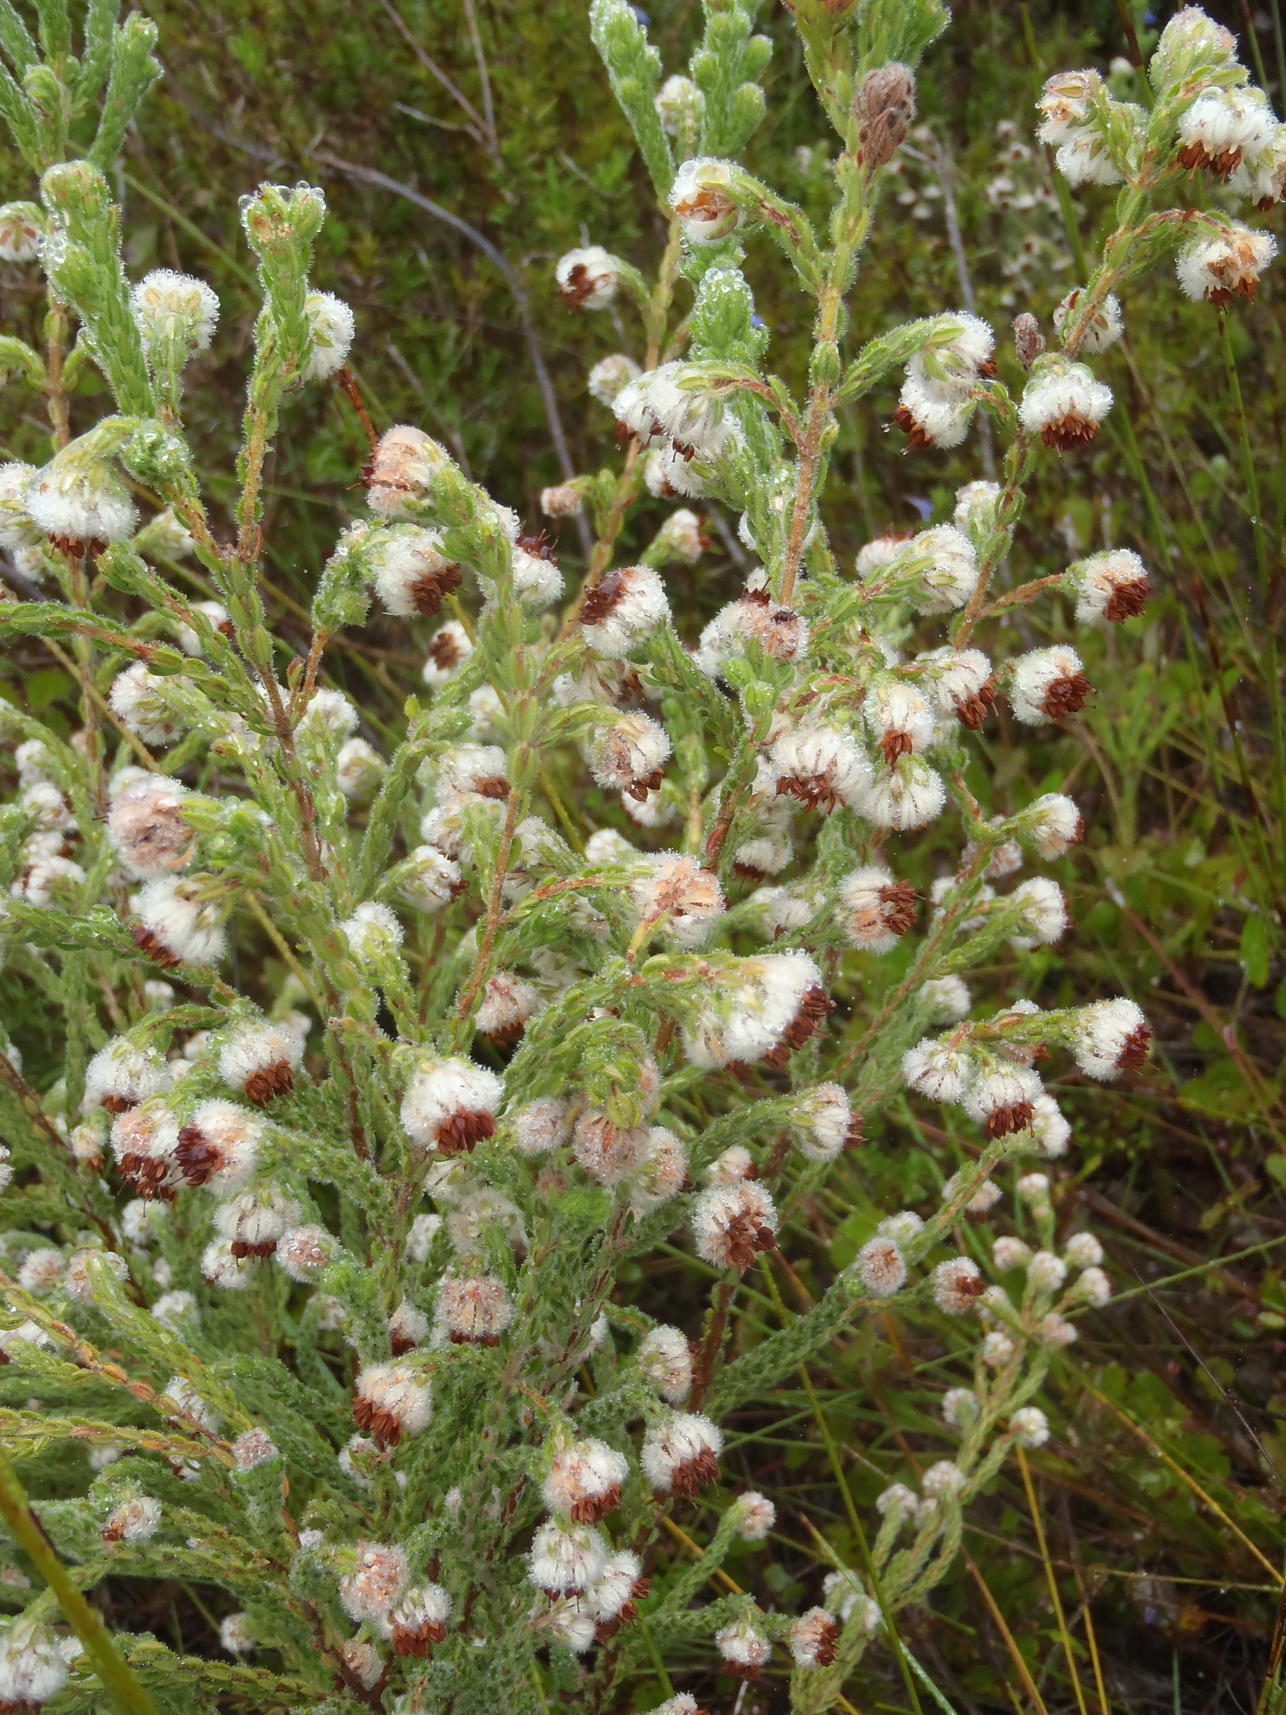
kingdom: Plantae
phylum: Tracheophyta
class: Magnoliopsida
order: Ericales
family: Ericaceae
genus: Erica
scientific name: Erica flaccida
